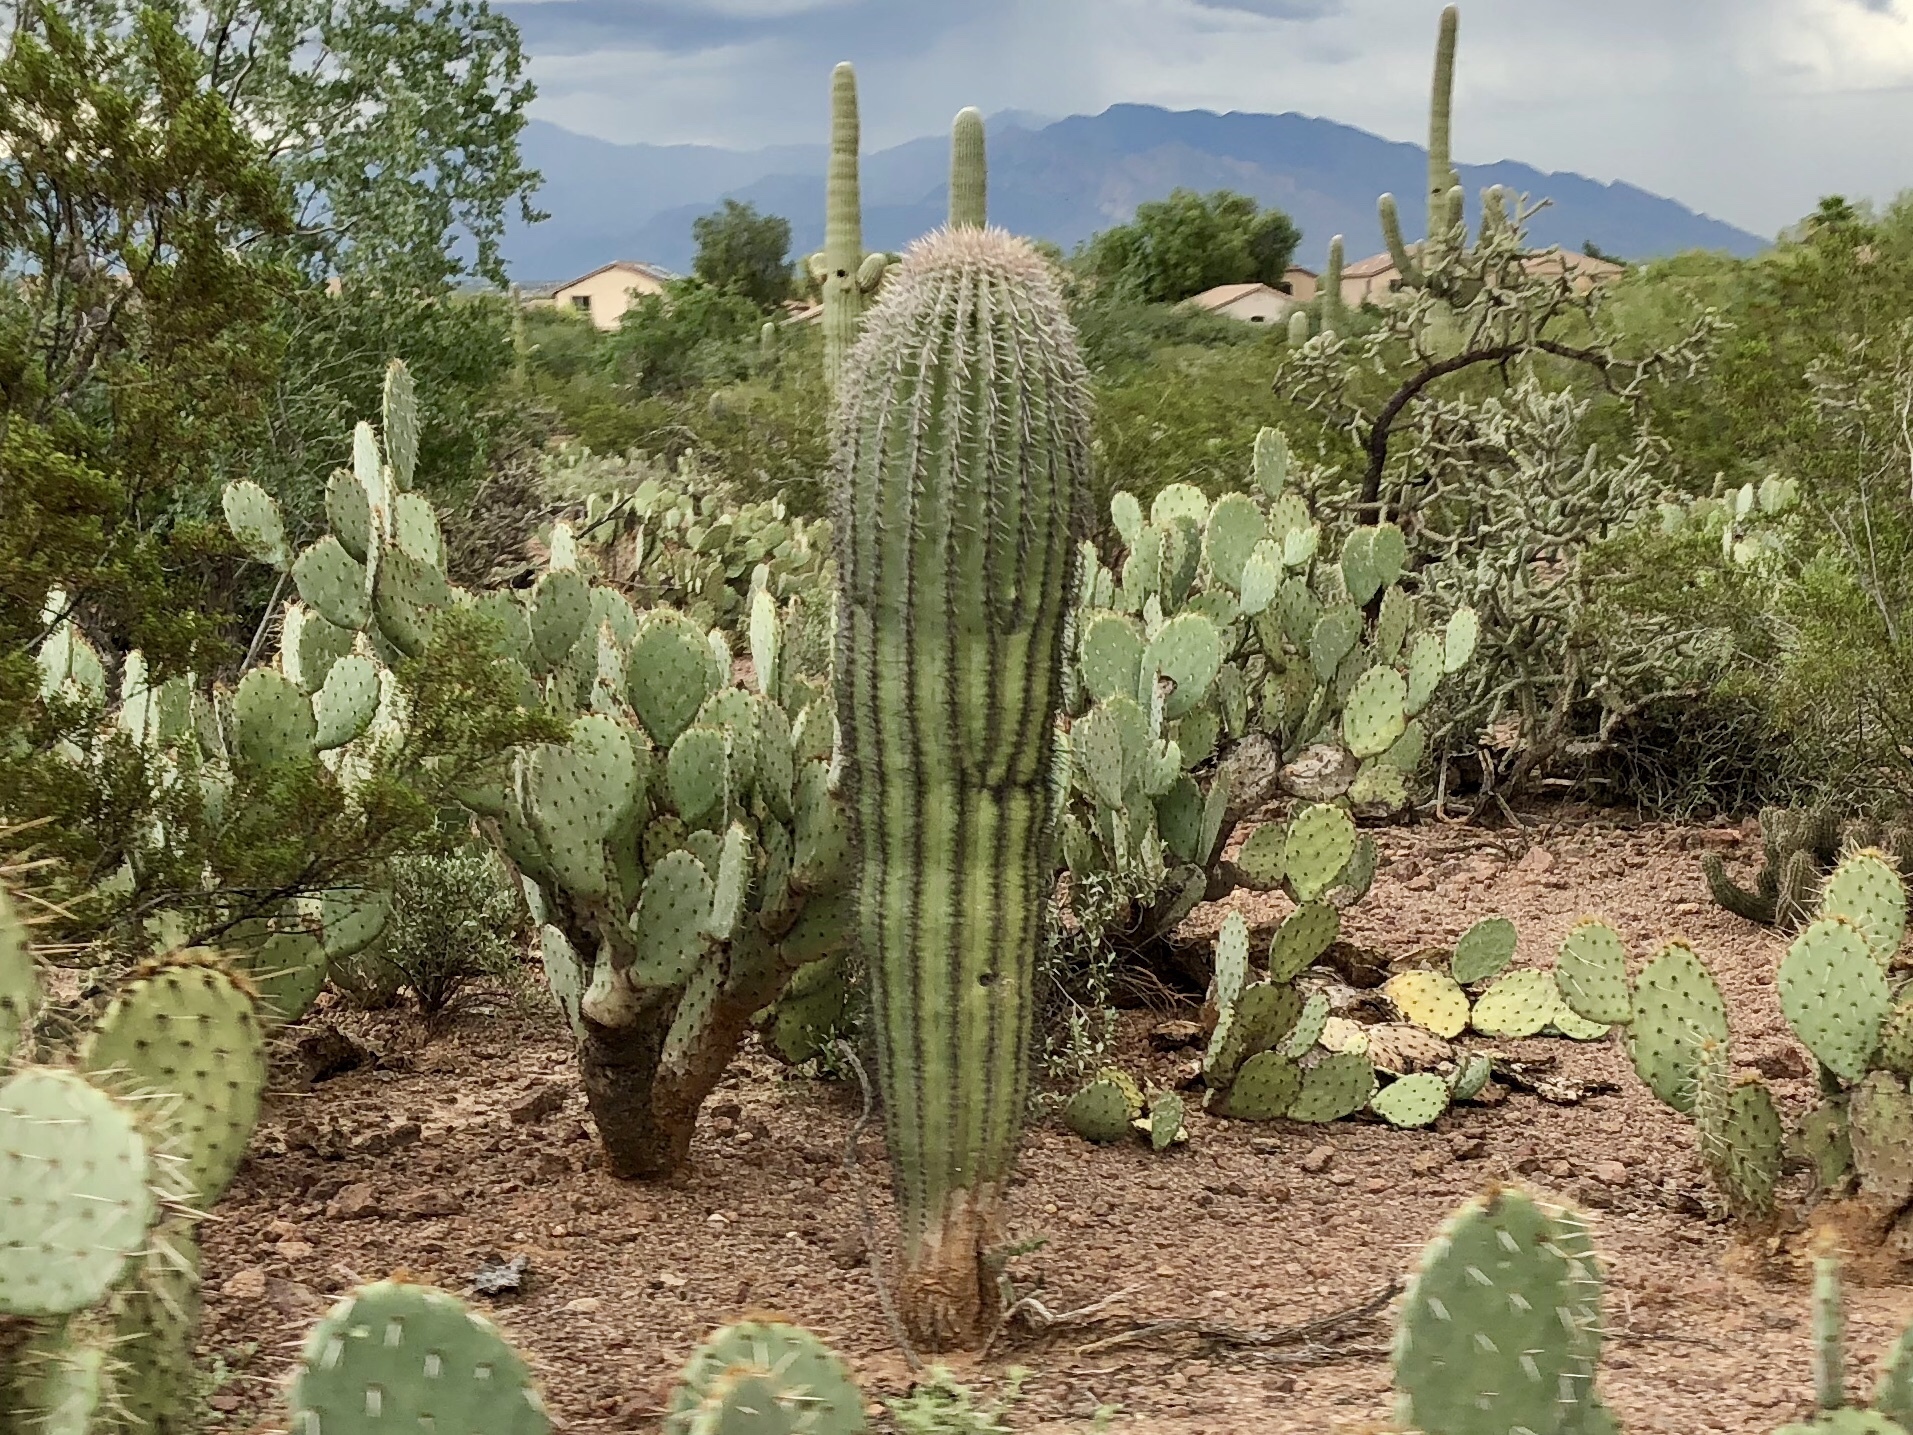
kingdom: Plantae
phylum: Tracheophyta
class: Magnoliopsida
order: Caryophyllales
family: Cactaceae
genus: Carnegiea
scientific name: Carnegiea gigantea
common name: Saguaro
